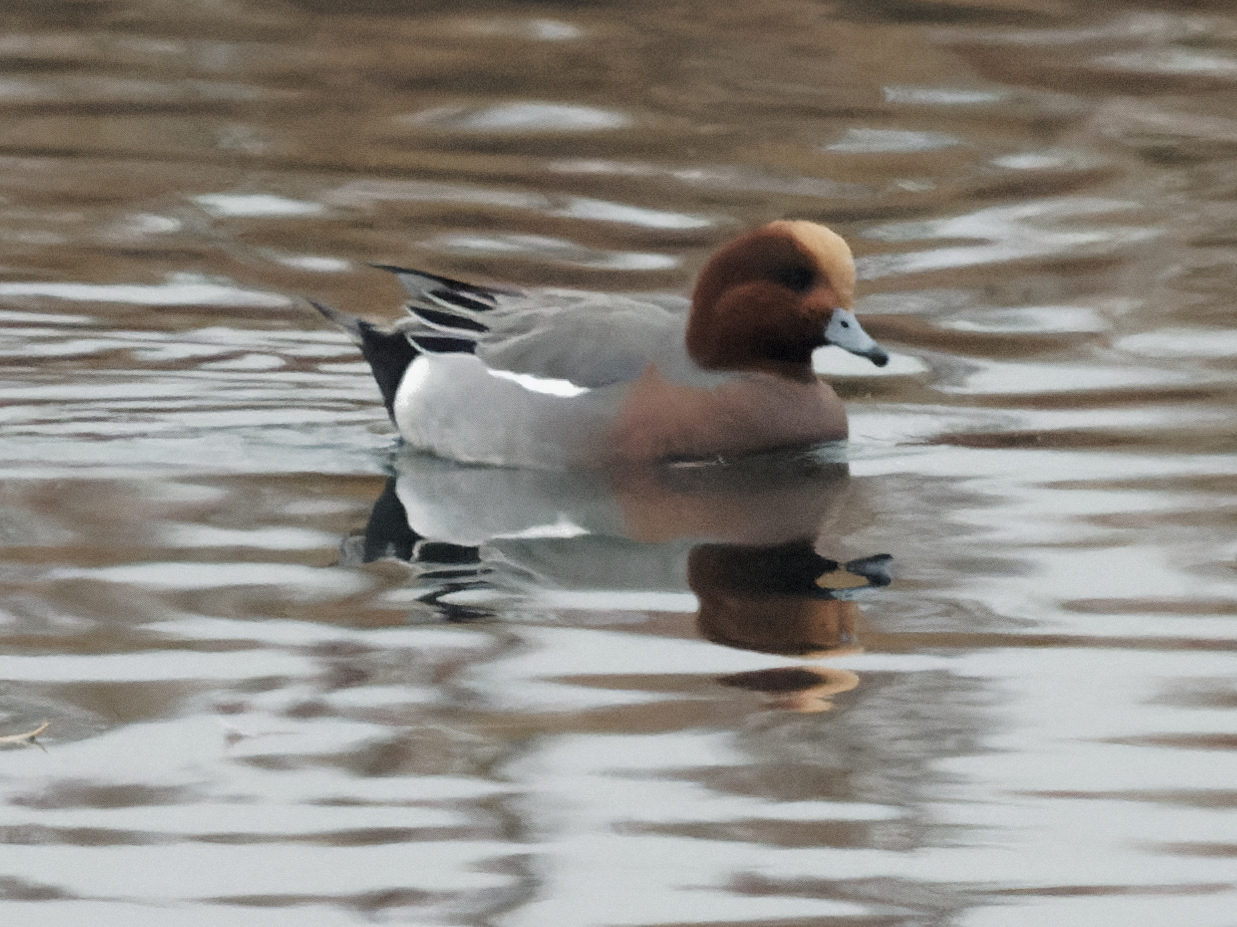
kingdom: Animalia
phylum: Chordata
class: Aves
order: Anseriformes
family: Anatidae
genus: Mareca
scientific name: Mareca penelope
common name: Eurasian wigeon
